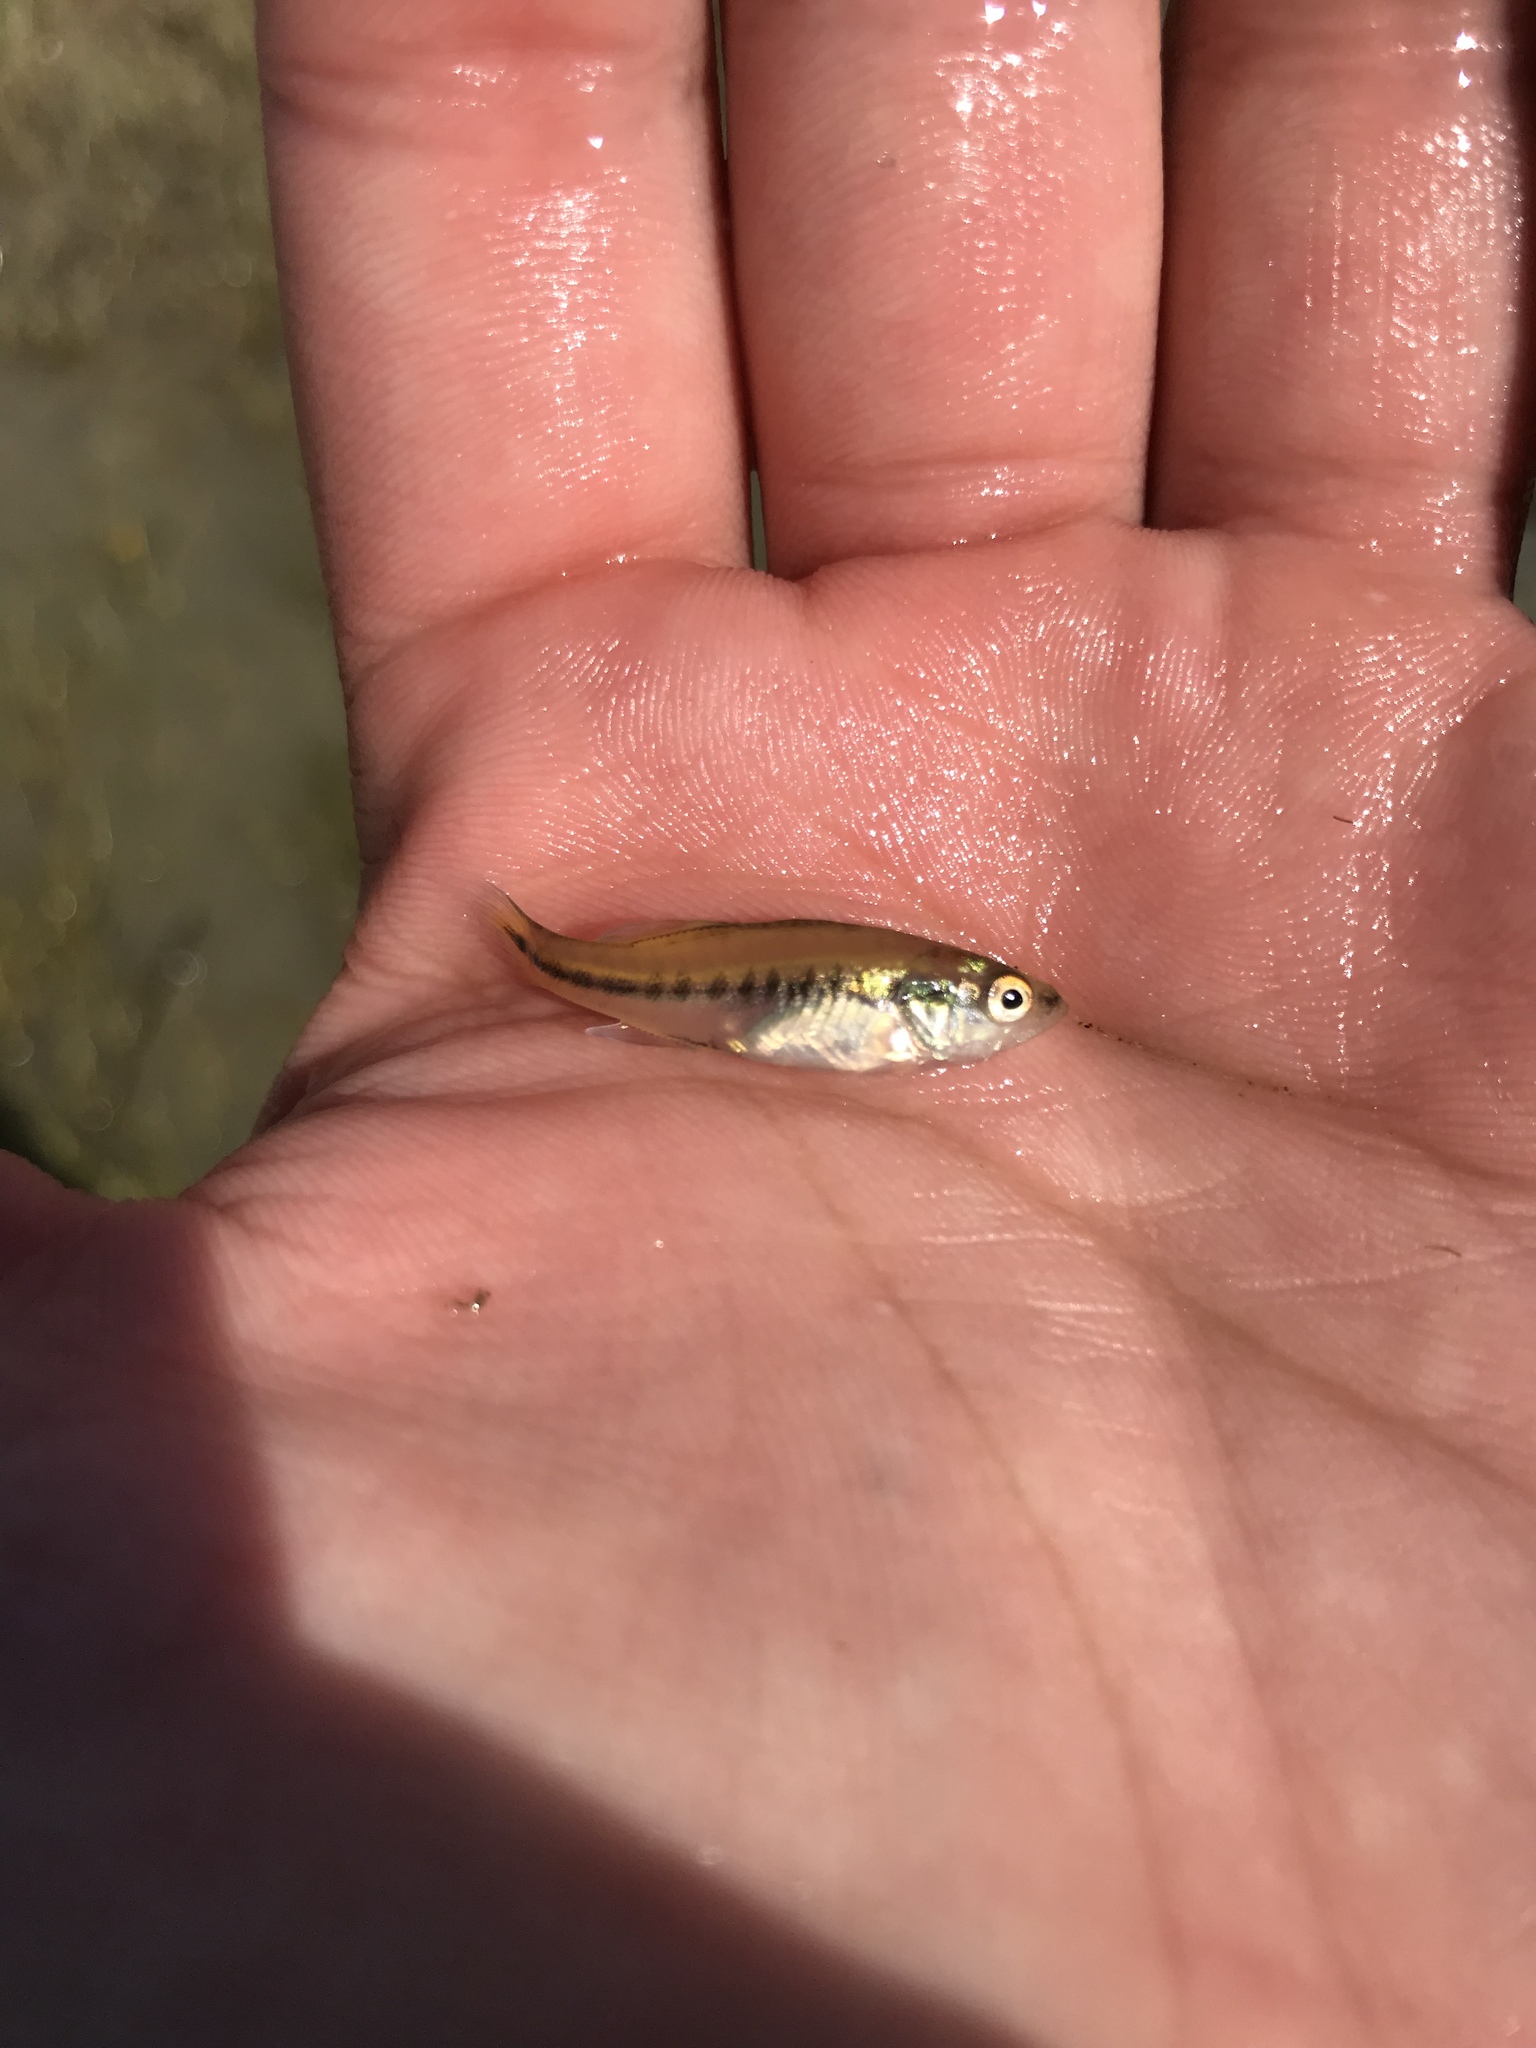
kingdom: Animalia
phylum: Chordata
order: Perciformes
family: Centrarchidae
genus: Micropterus
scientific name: Micropterus
